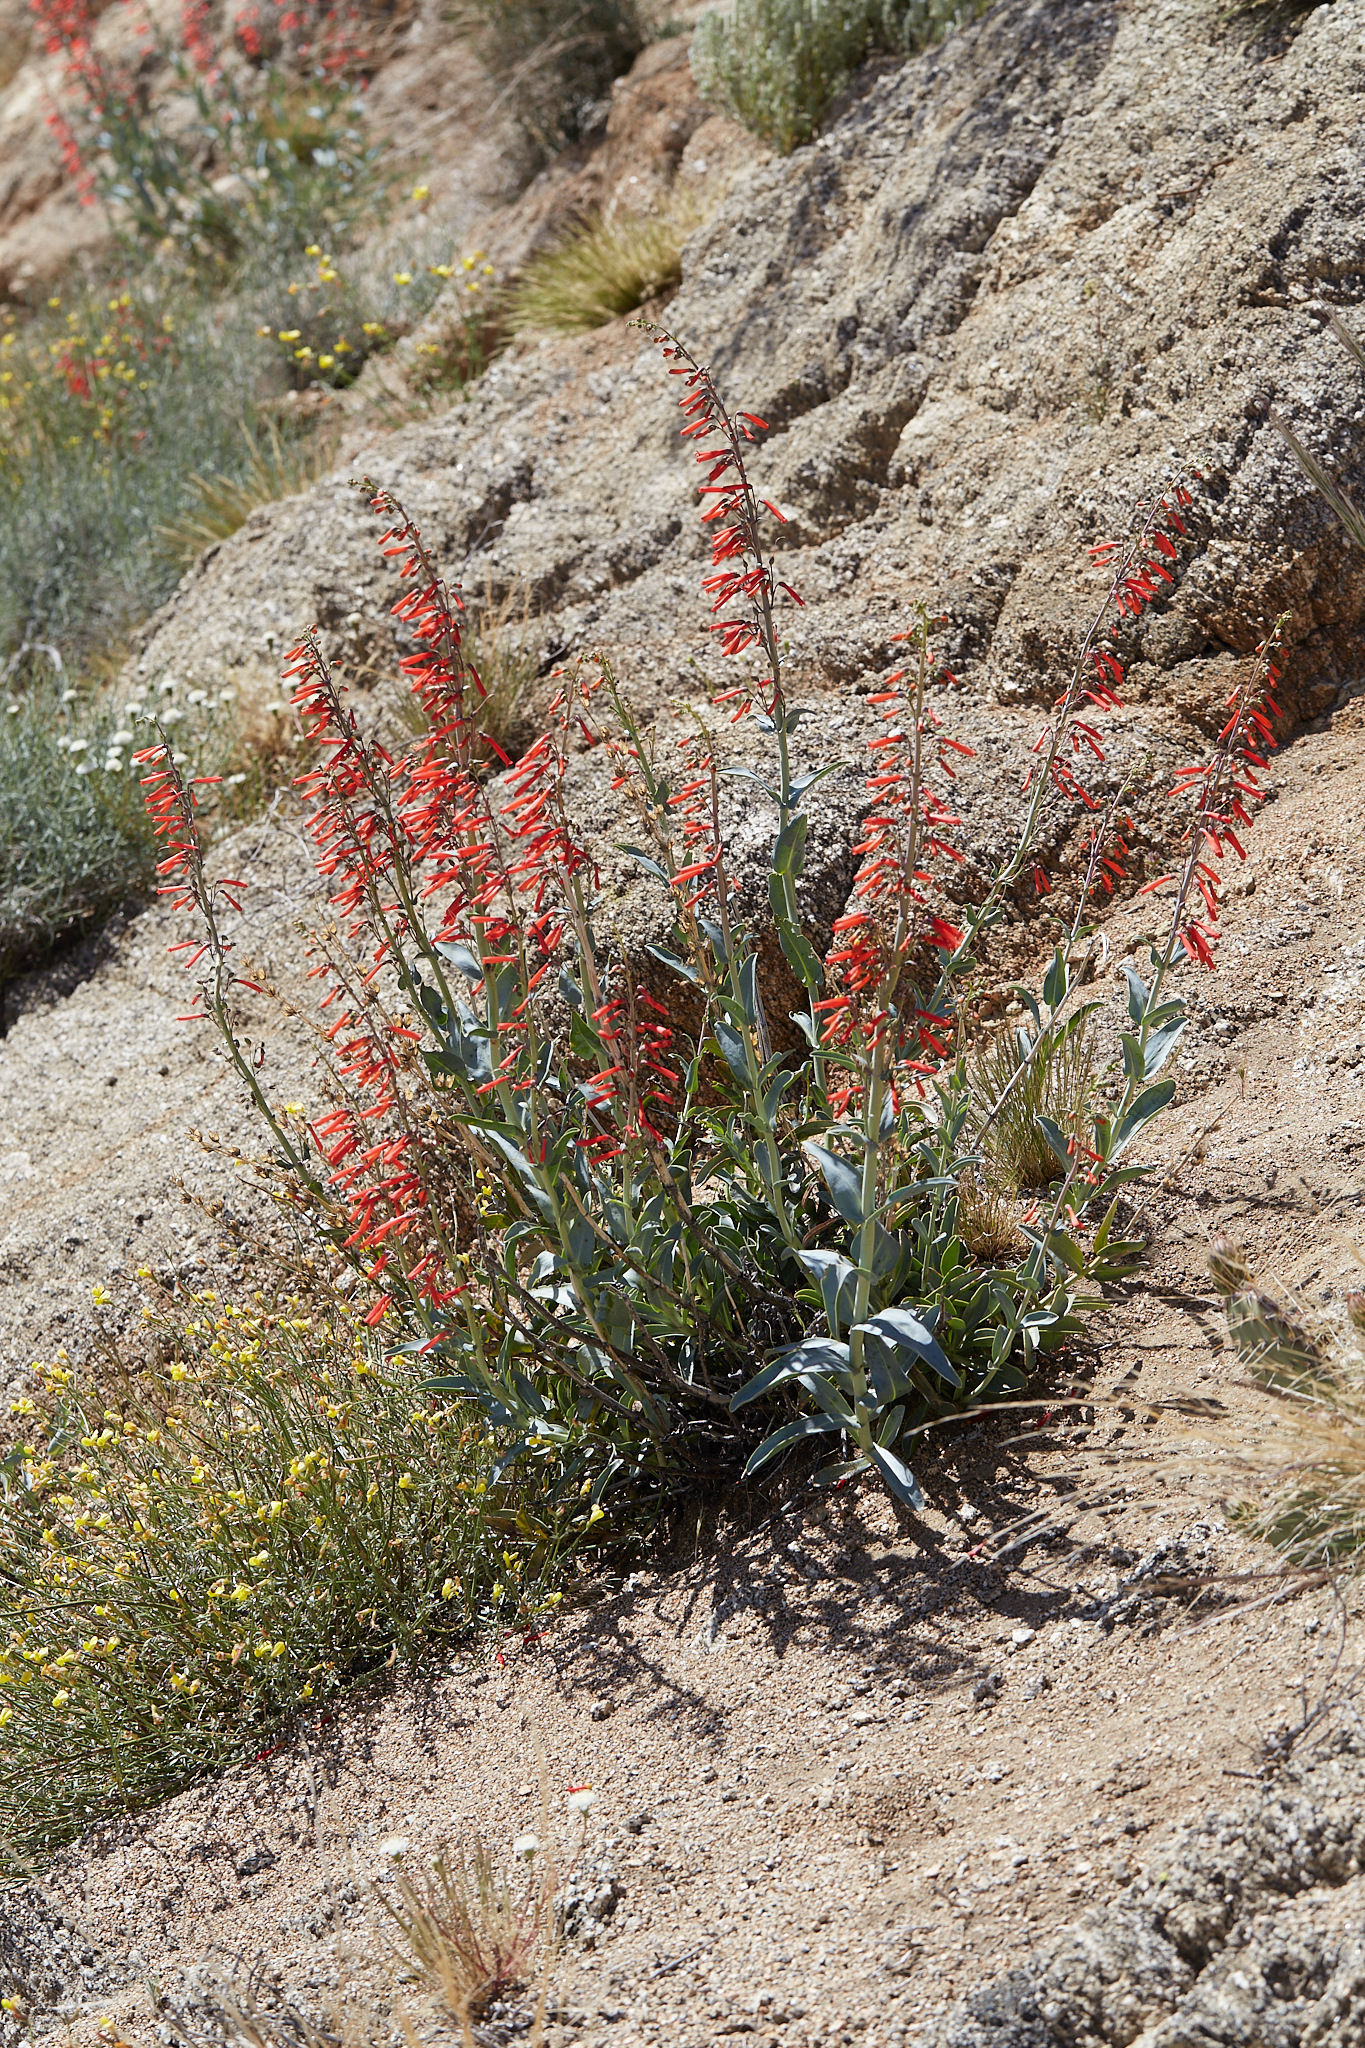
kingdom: Plantae
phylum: Tracheophyta
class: Magnoliopsida
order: Lamiales
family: Plantaginaceae
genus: Penstemon
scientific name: Penstemon centranthifolius
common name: Scarlet bugler
